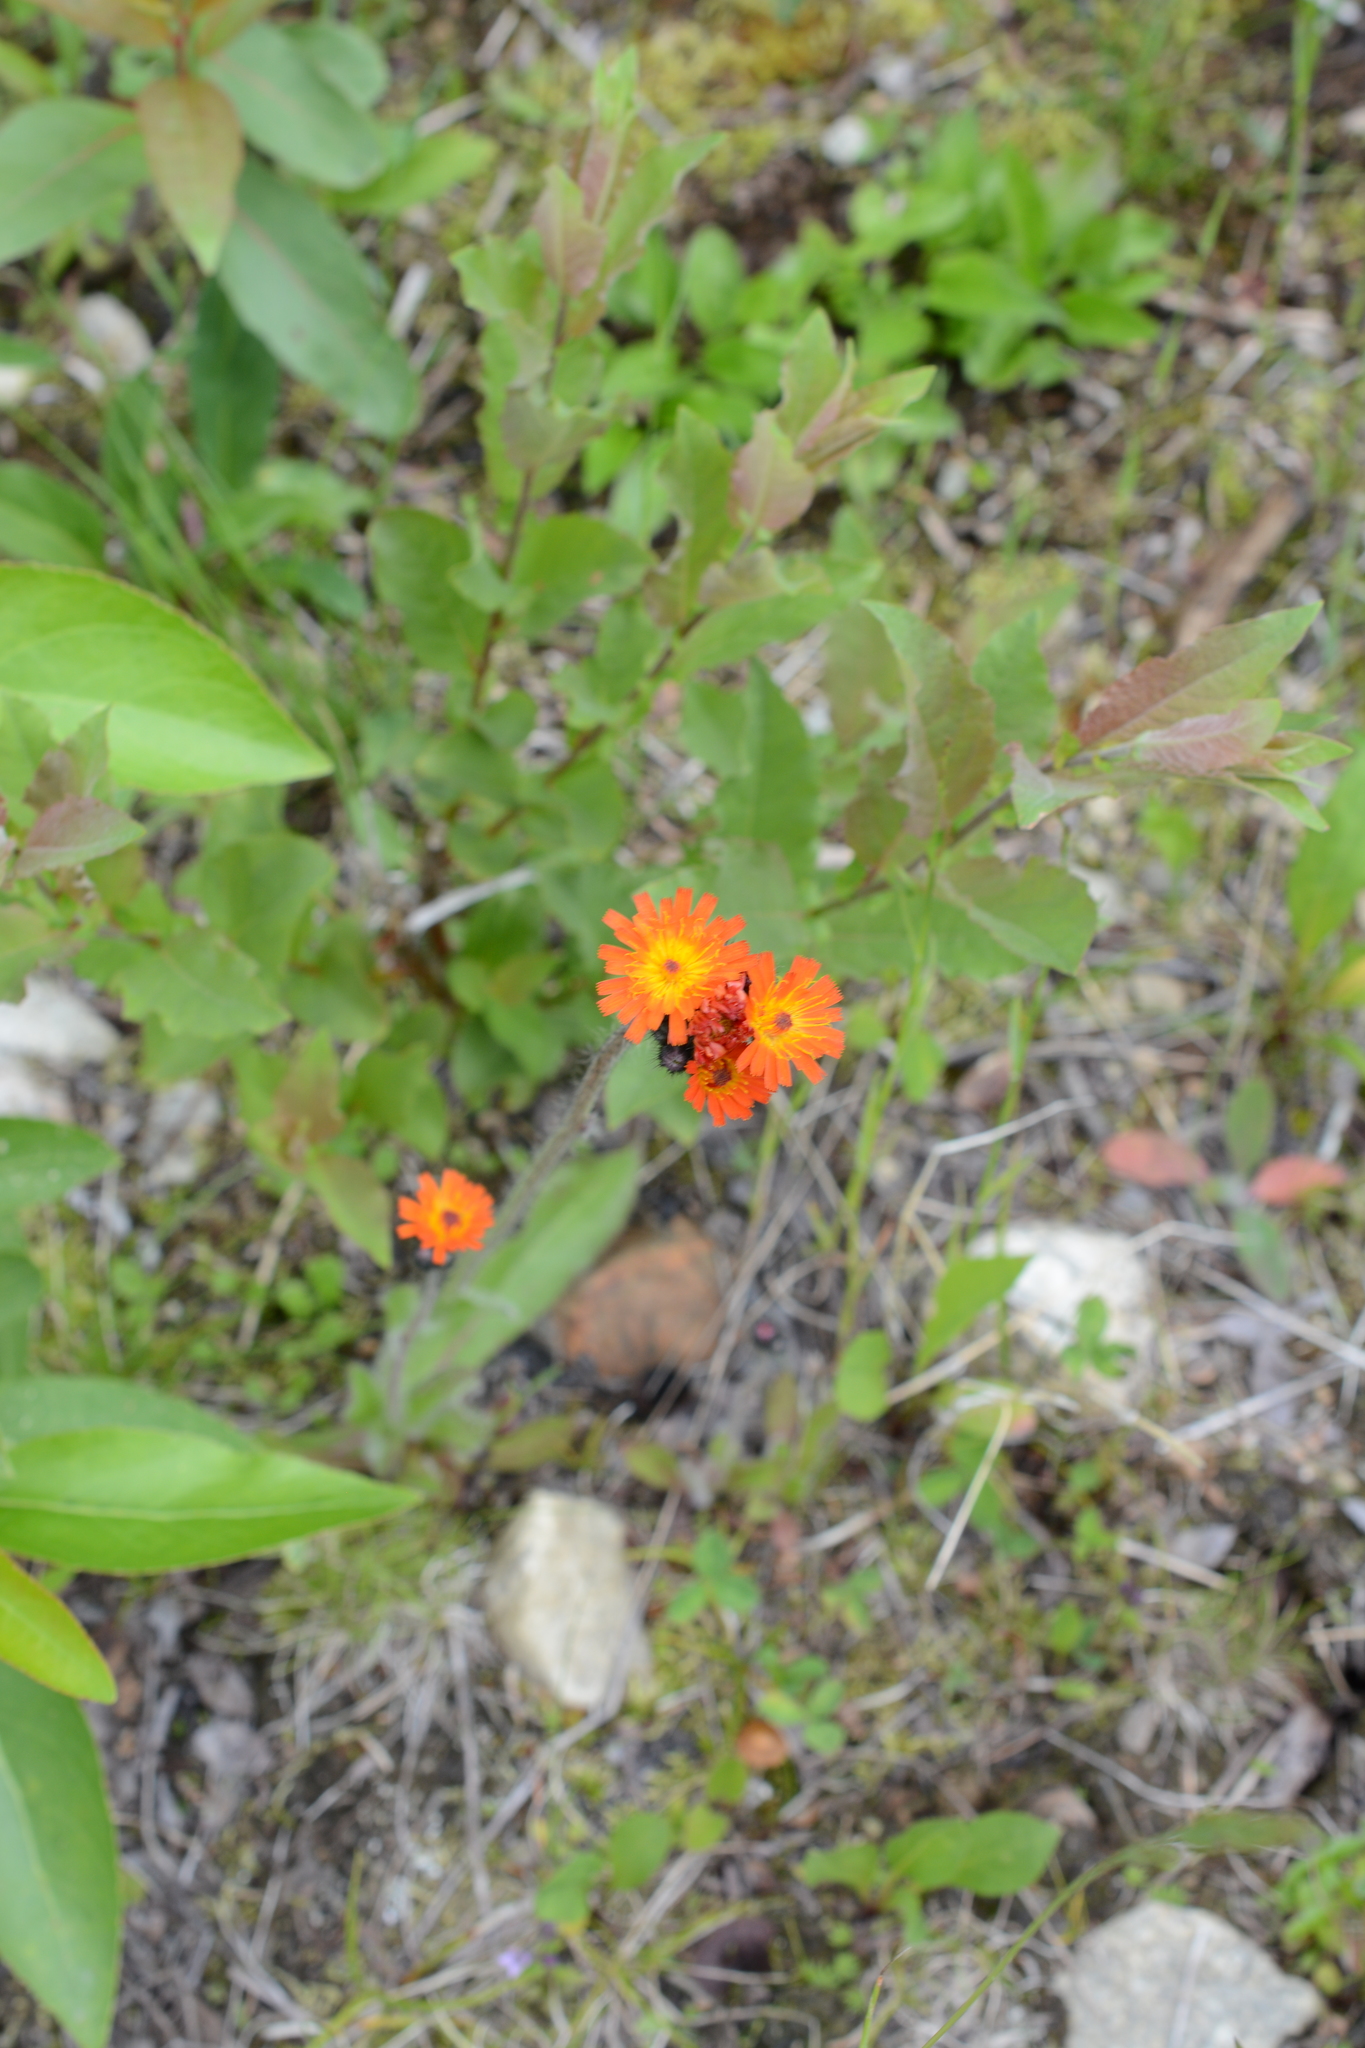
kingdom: Plantae
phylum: Tracheophyta
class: Magnoliopsida
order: Asterales
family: Asteraceae
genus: Pilosella
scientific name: Pilosella aurantiaca
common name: Fox-and-cubs
